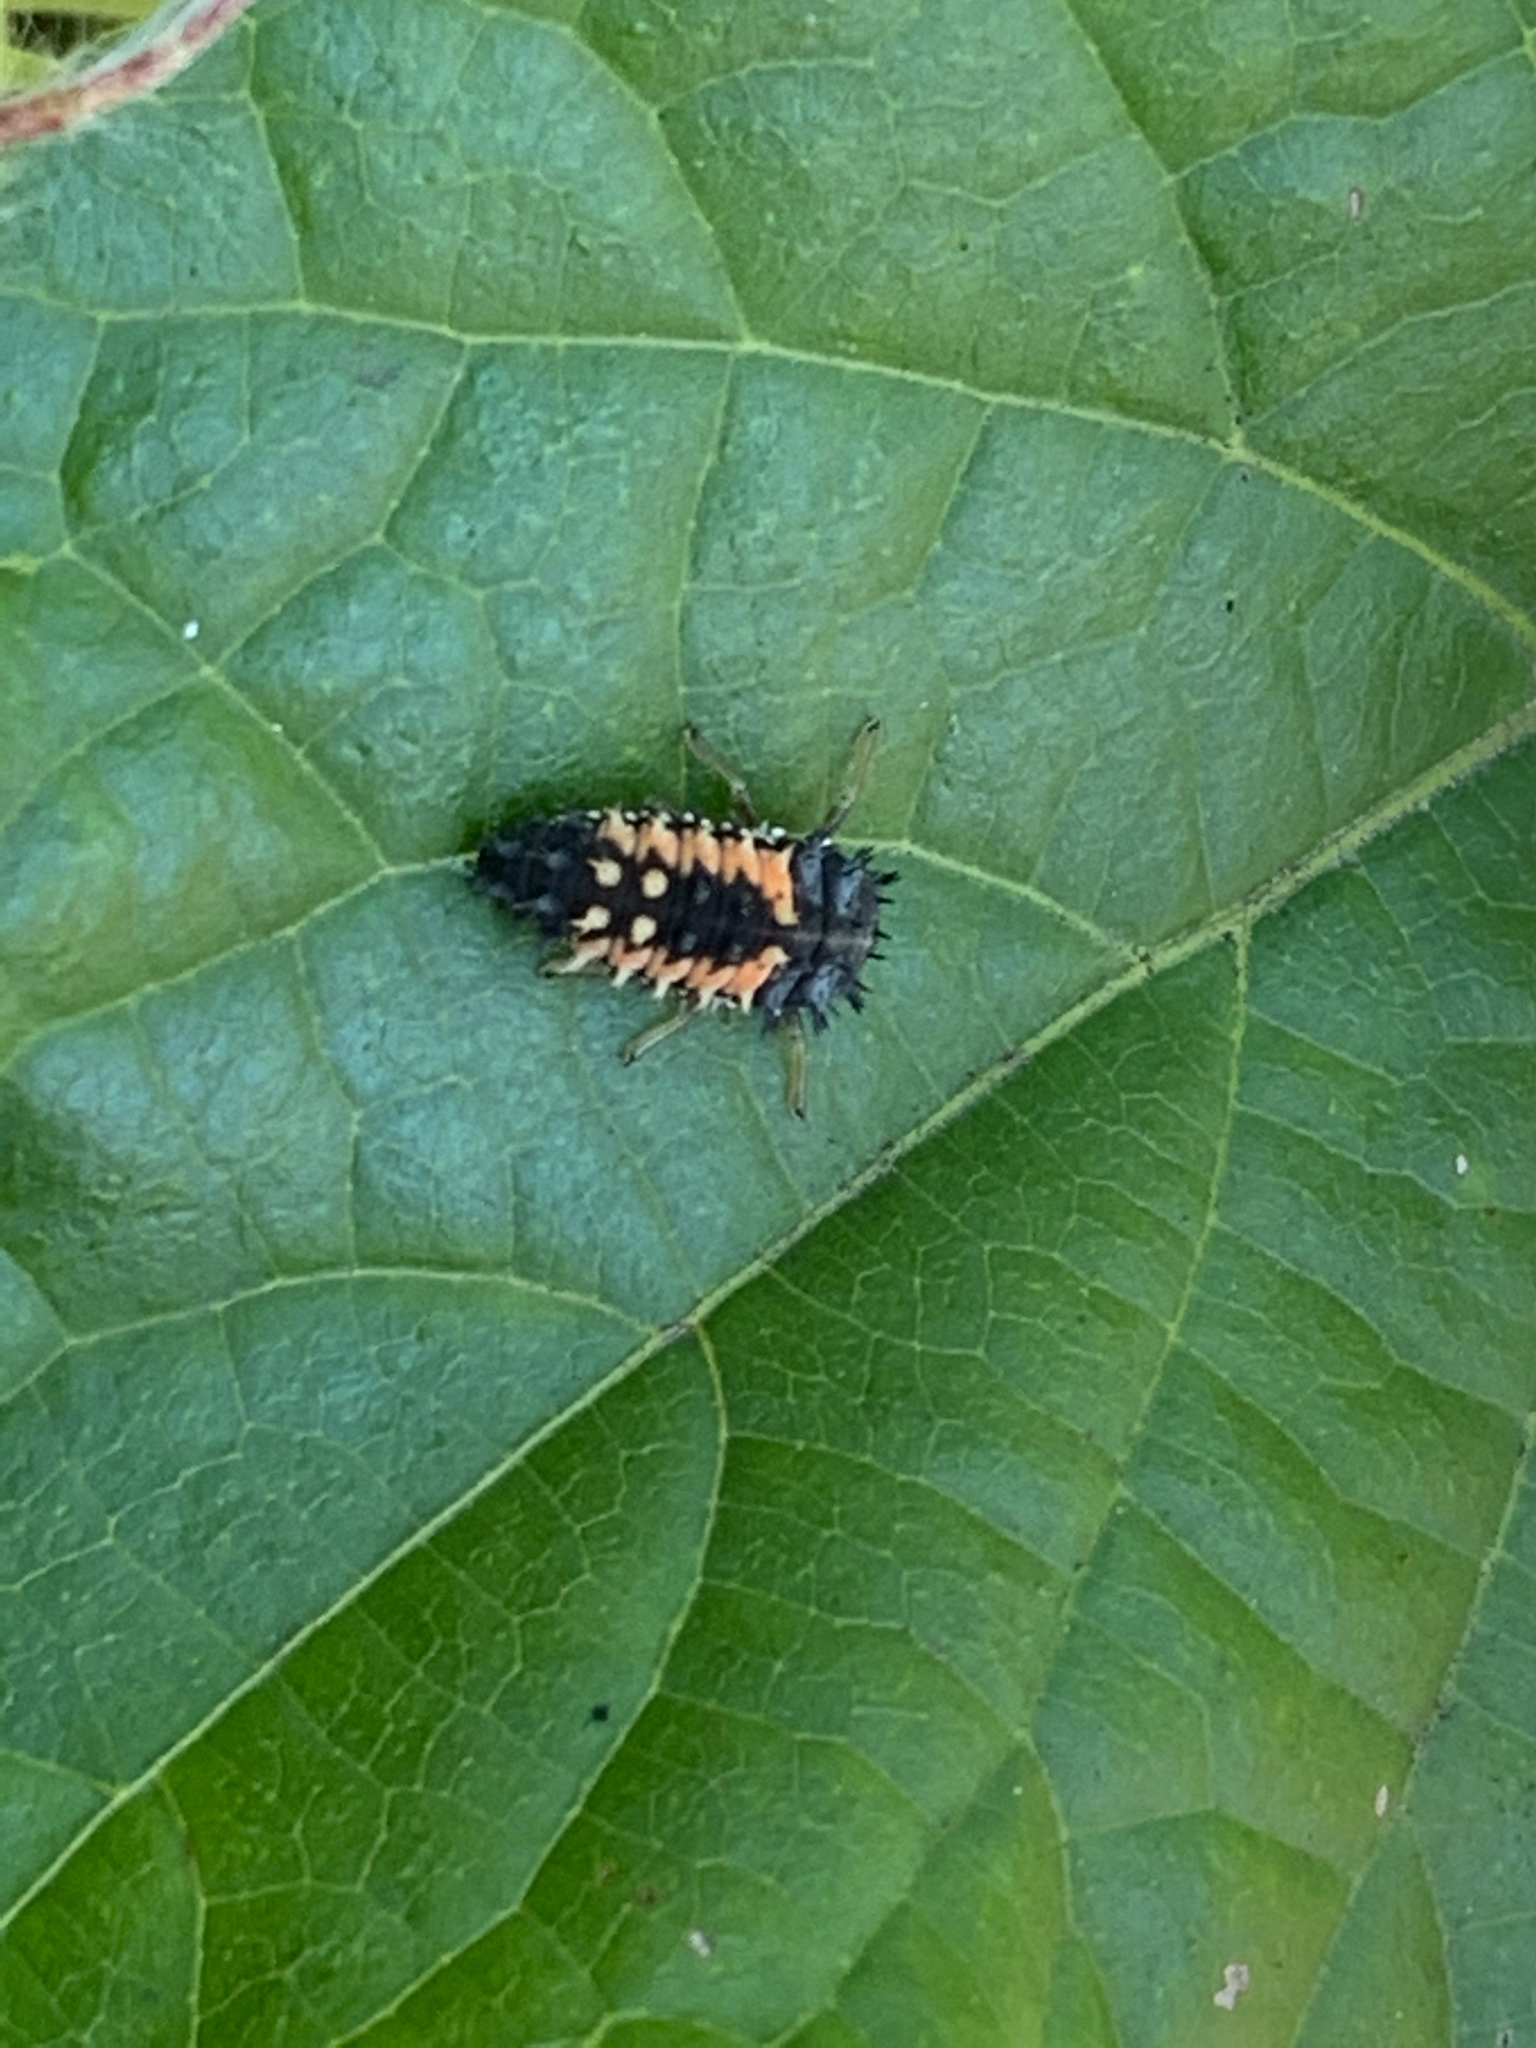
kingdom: Animalia
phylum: Arthropoda
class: Insecta
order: Coleoptera
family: Coccinellidae
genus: Harmonia
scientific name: Harmonia axyridis
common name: Harlequin ladybird
